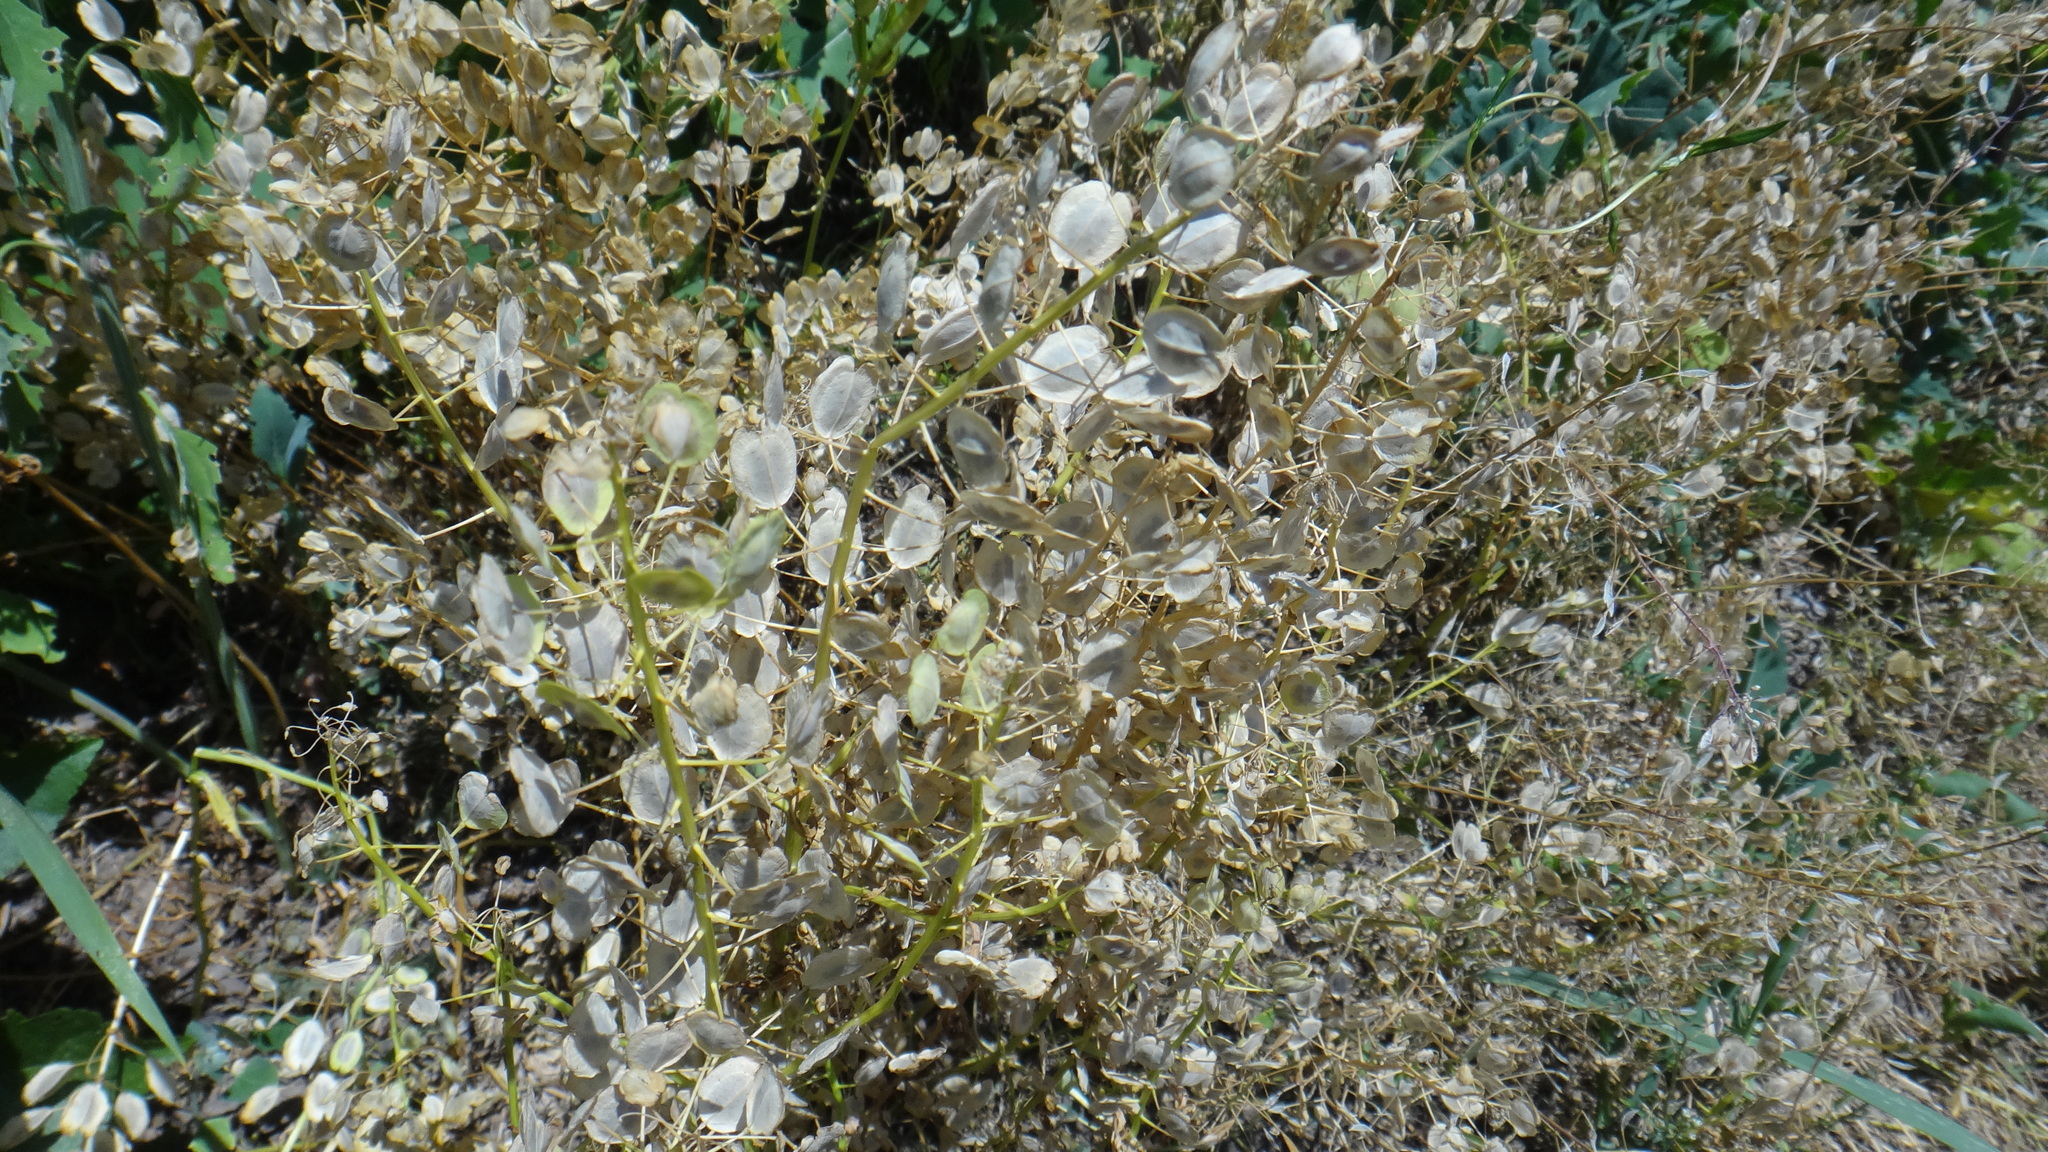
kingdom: Plantae
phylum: Tracheophyta
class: Magnoliopsida
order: Brassicales
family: Brassicaceae
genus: Thlaspi
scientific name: Thlaspi arvense
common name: Field pennycress
